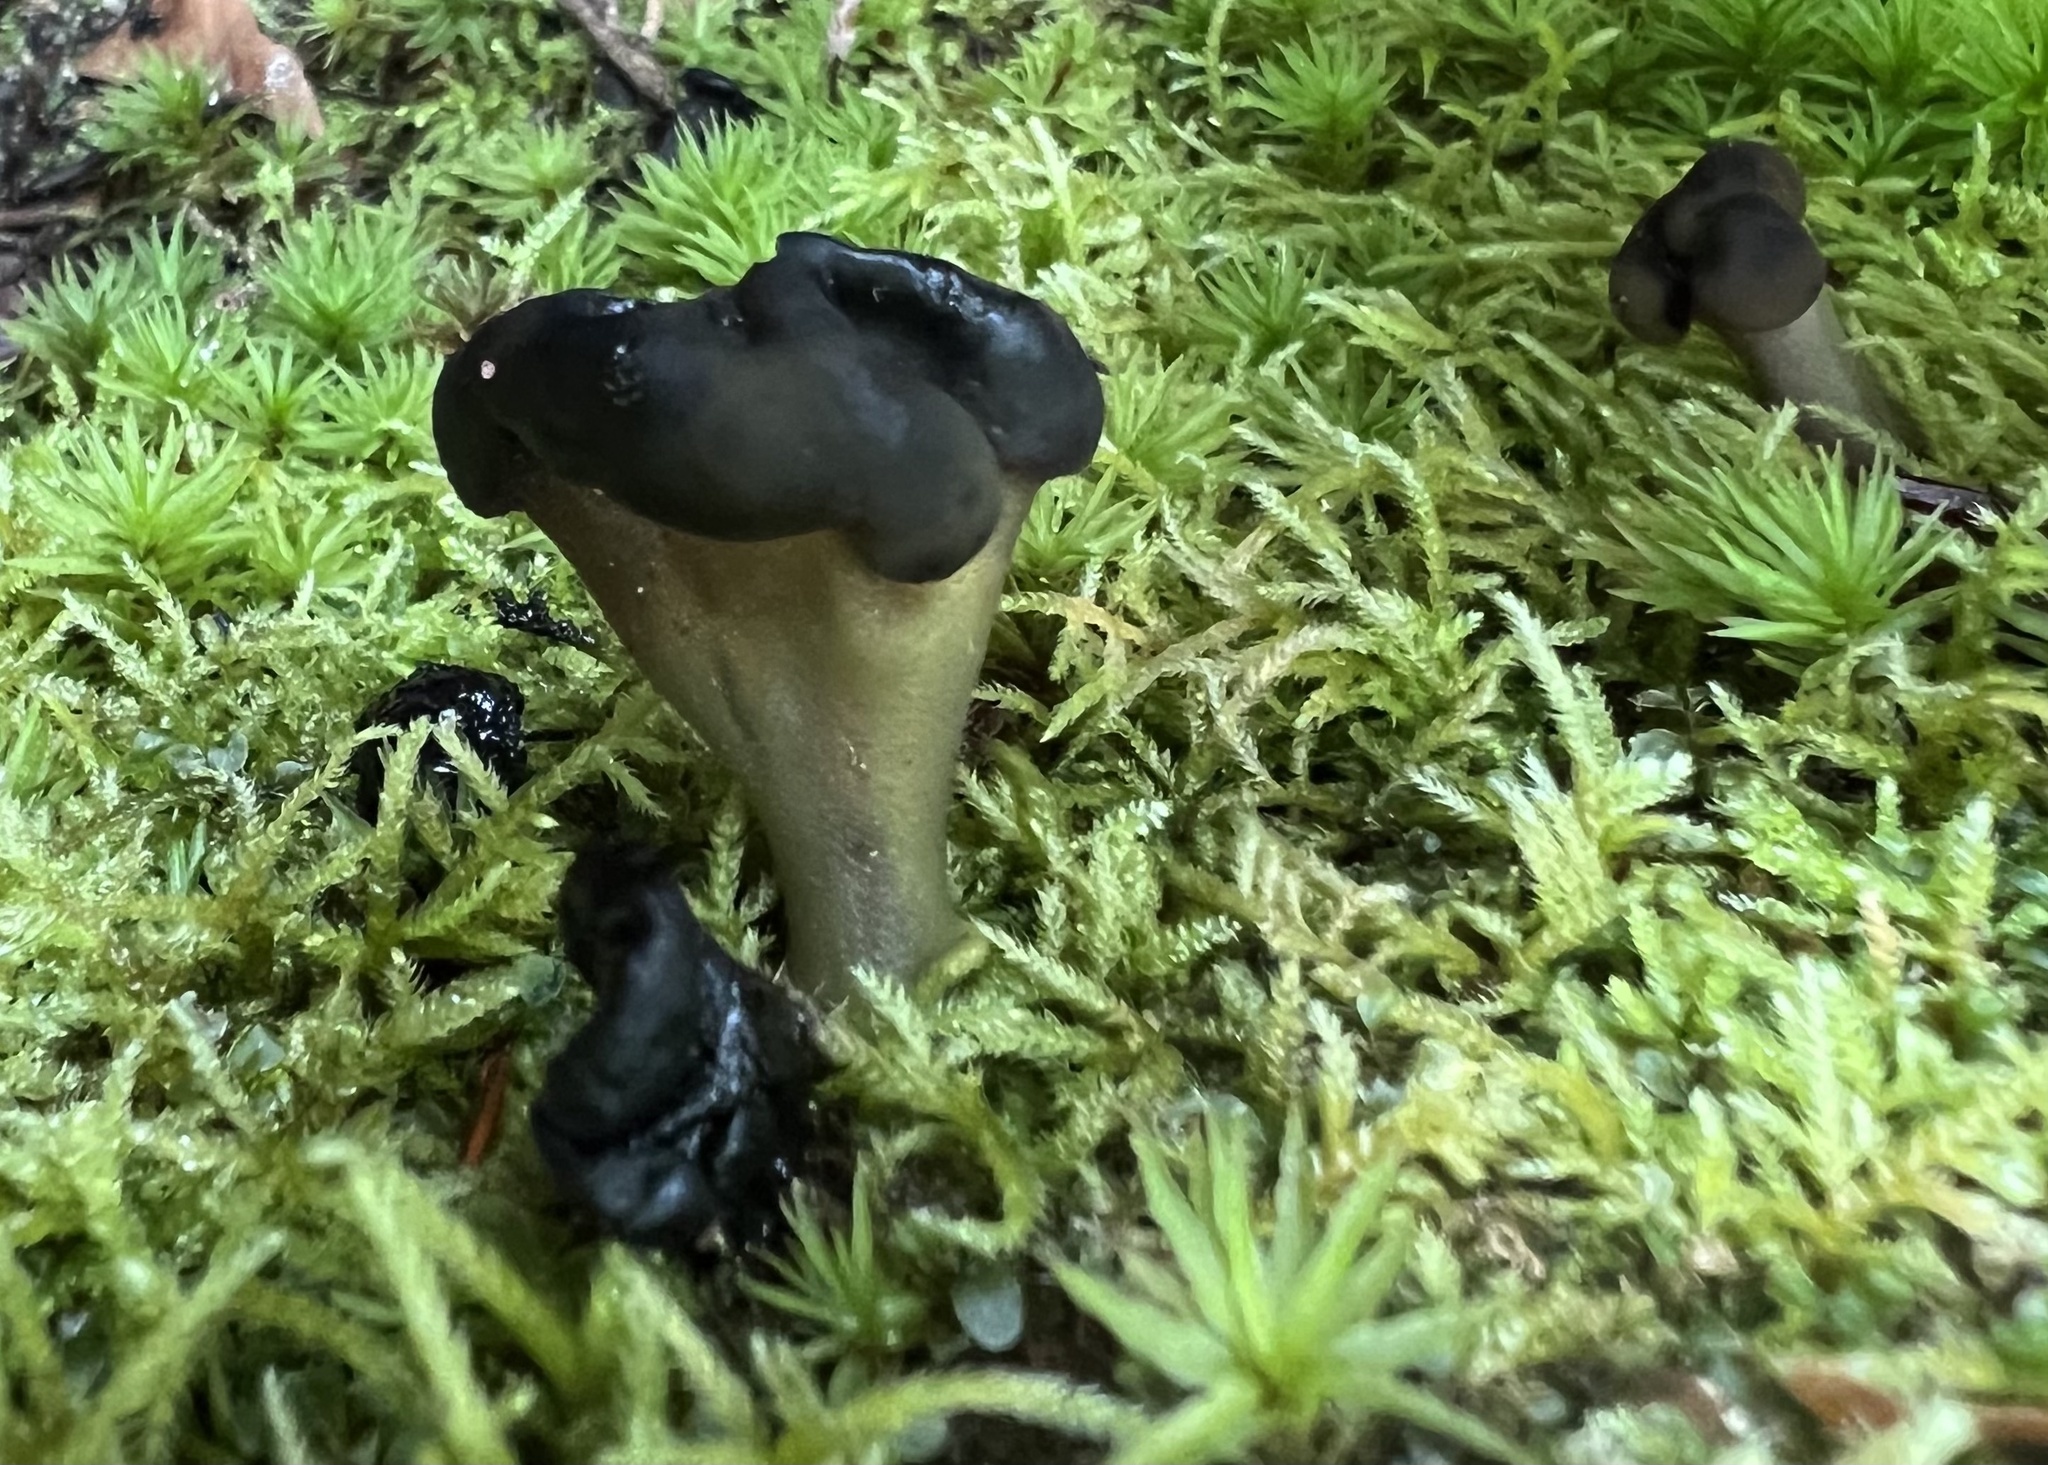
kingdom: Fungi
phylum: Ascomycota
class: Leotiomycetes
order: Leotiales
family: Leotiaceae
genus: Leotia
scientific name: Leotia lubrica
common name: Jellybaby
